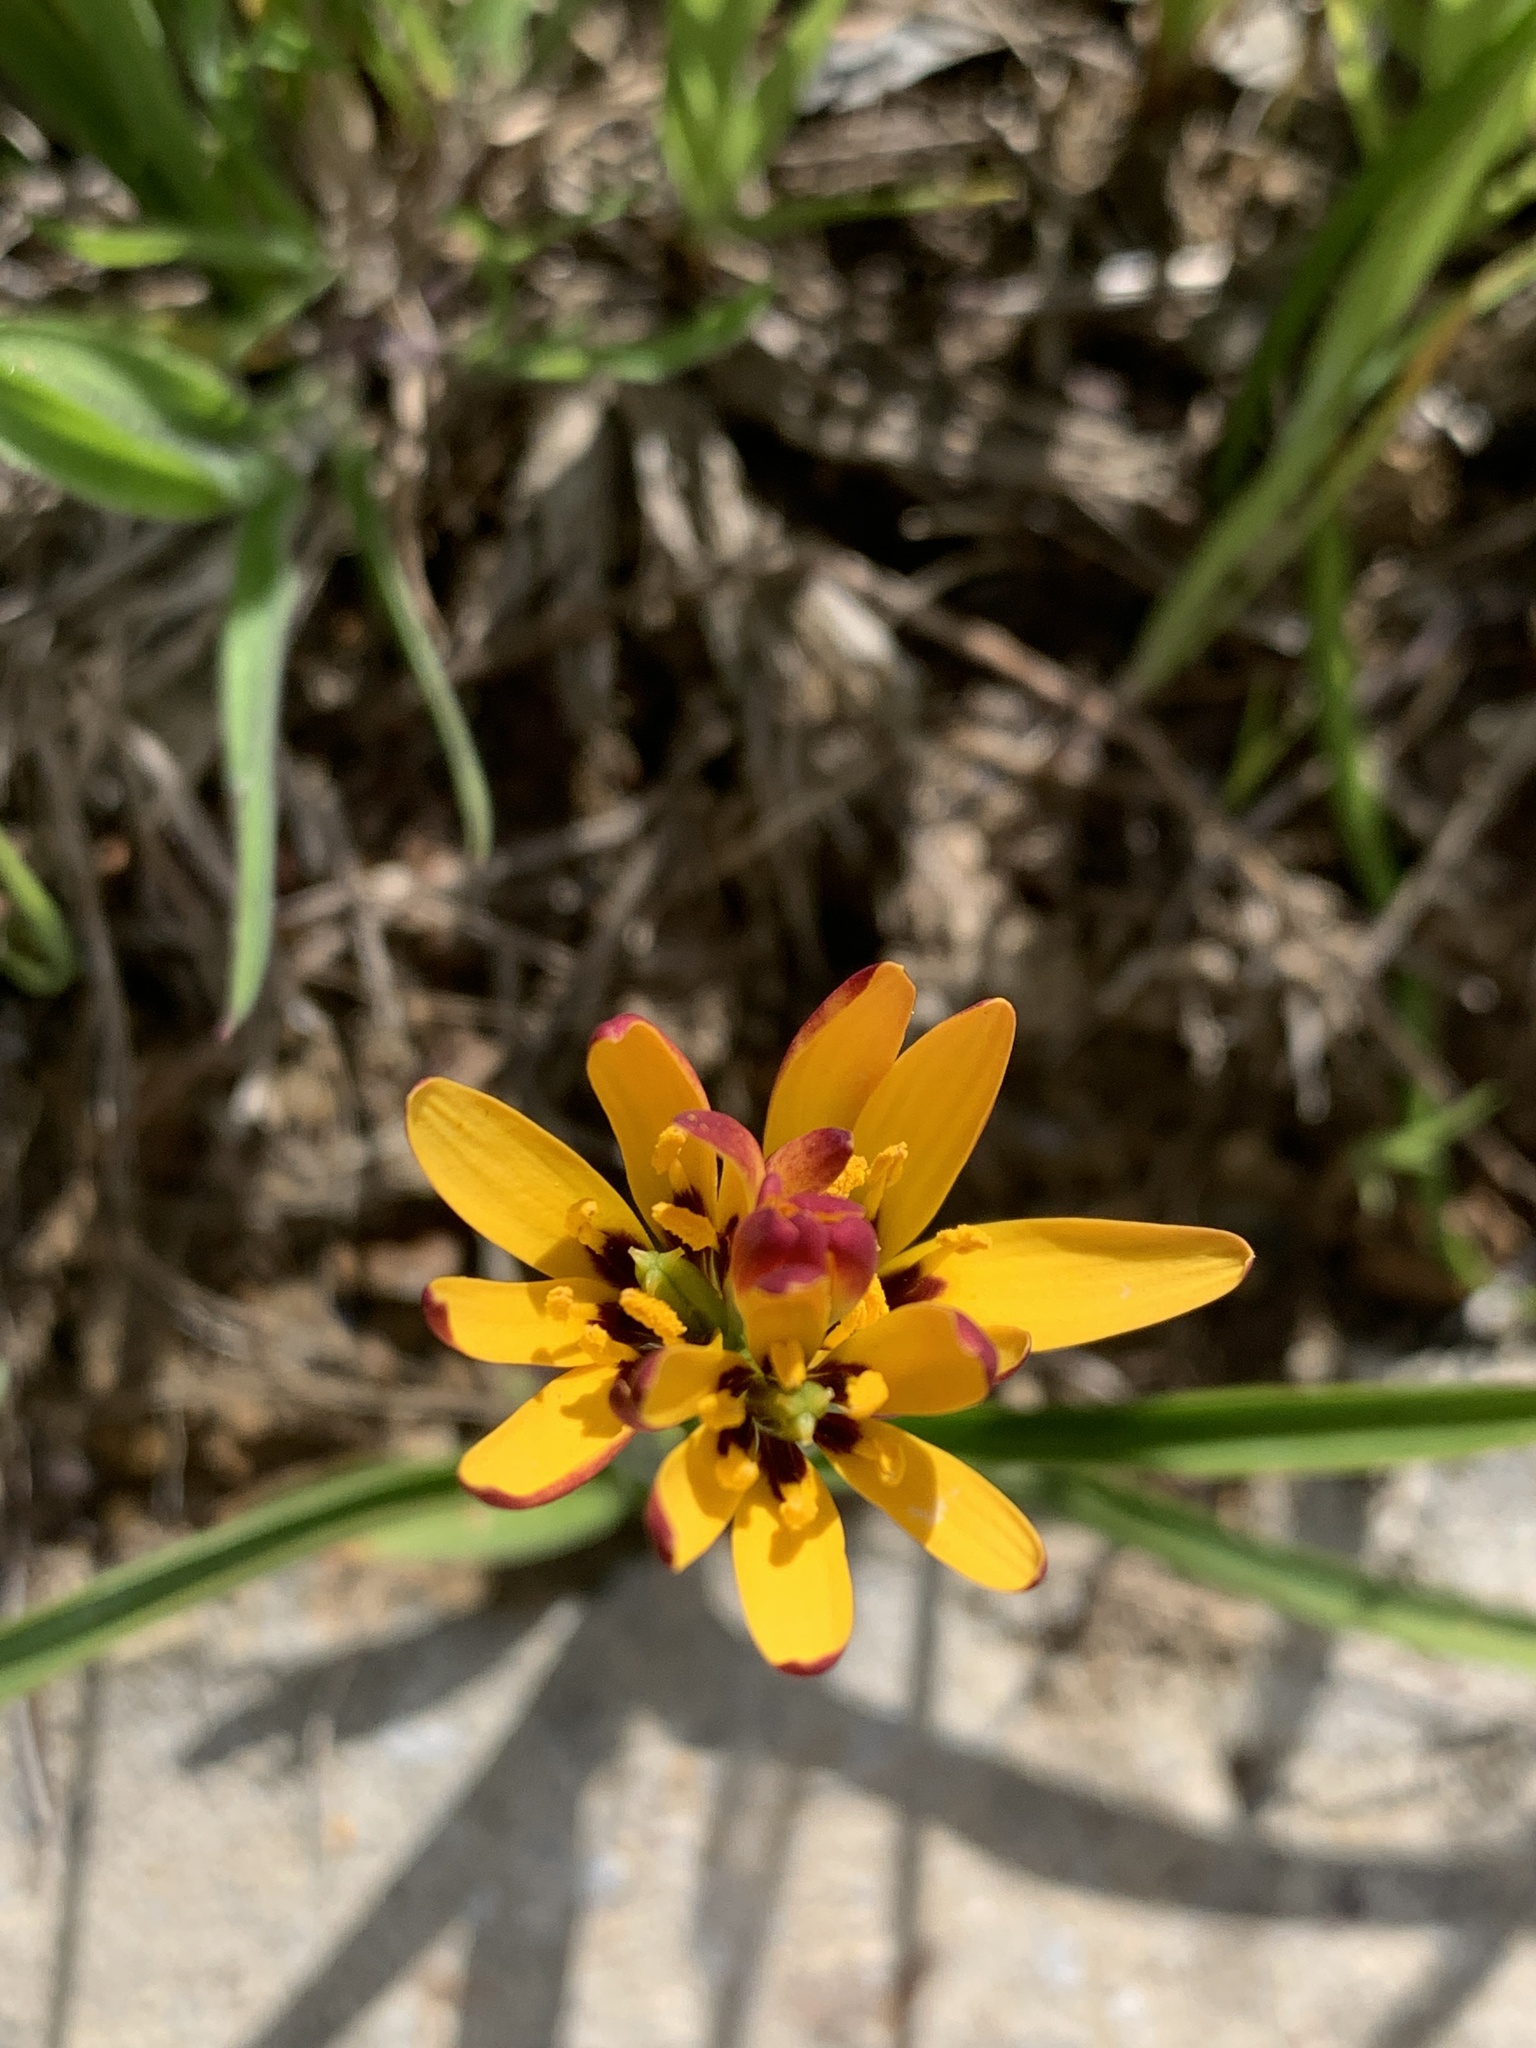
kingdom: Plantae
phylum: Tracheophyta
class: Liliopsida
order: Liliales
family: Colchicaceae
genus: Baeometra
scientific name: Baeometra uniflora
